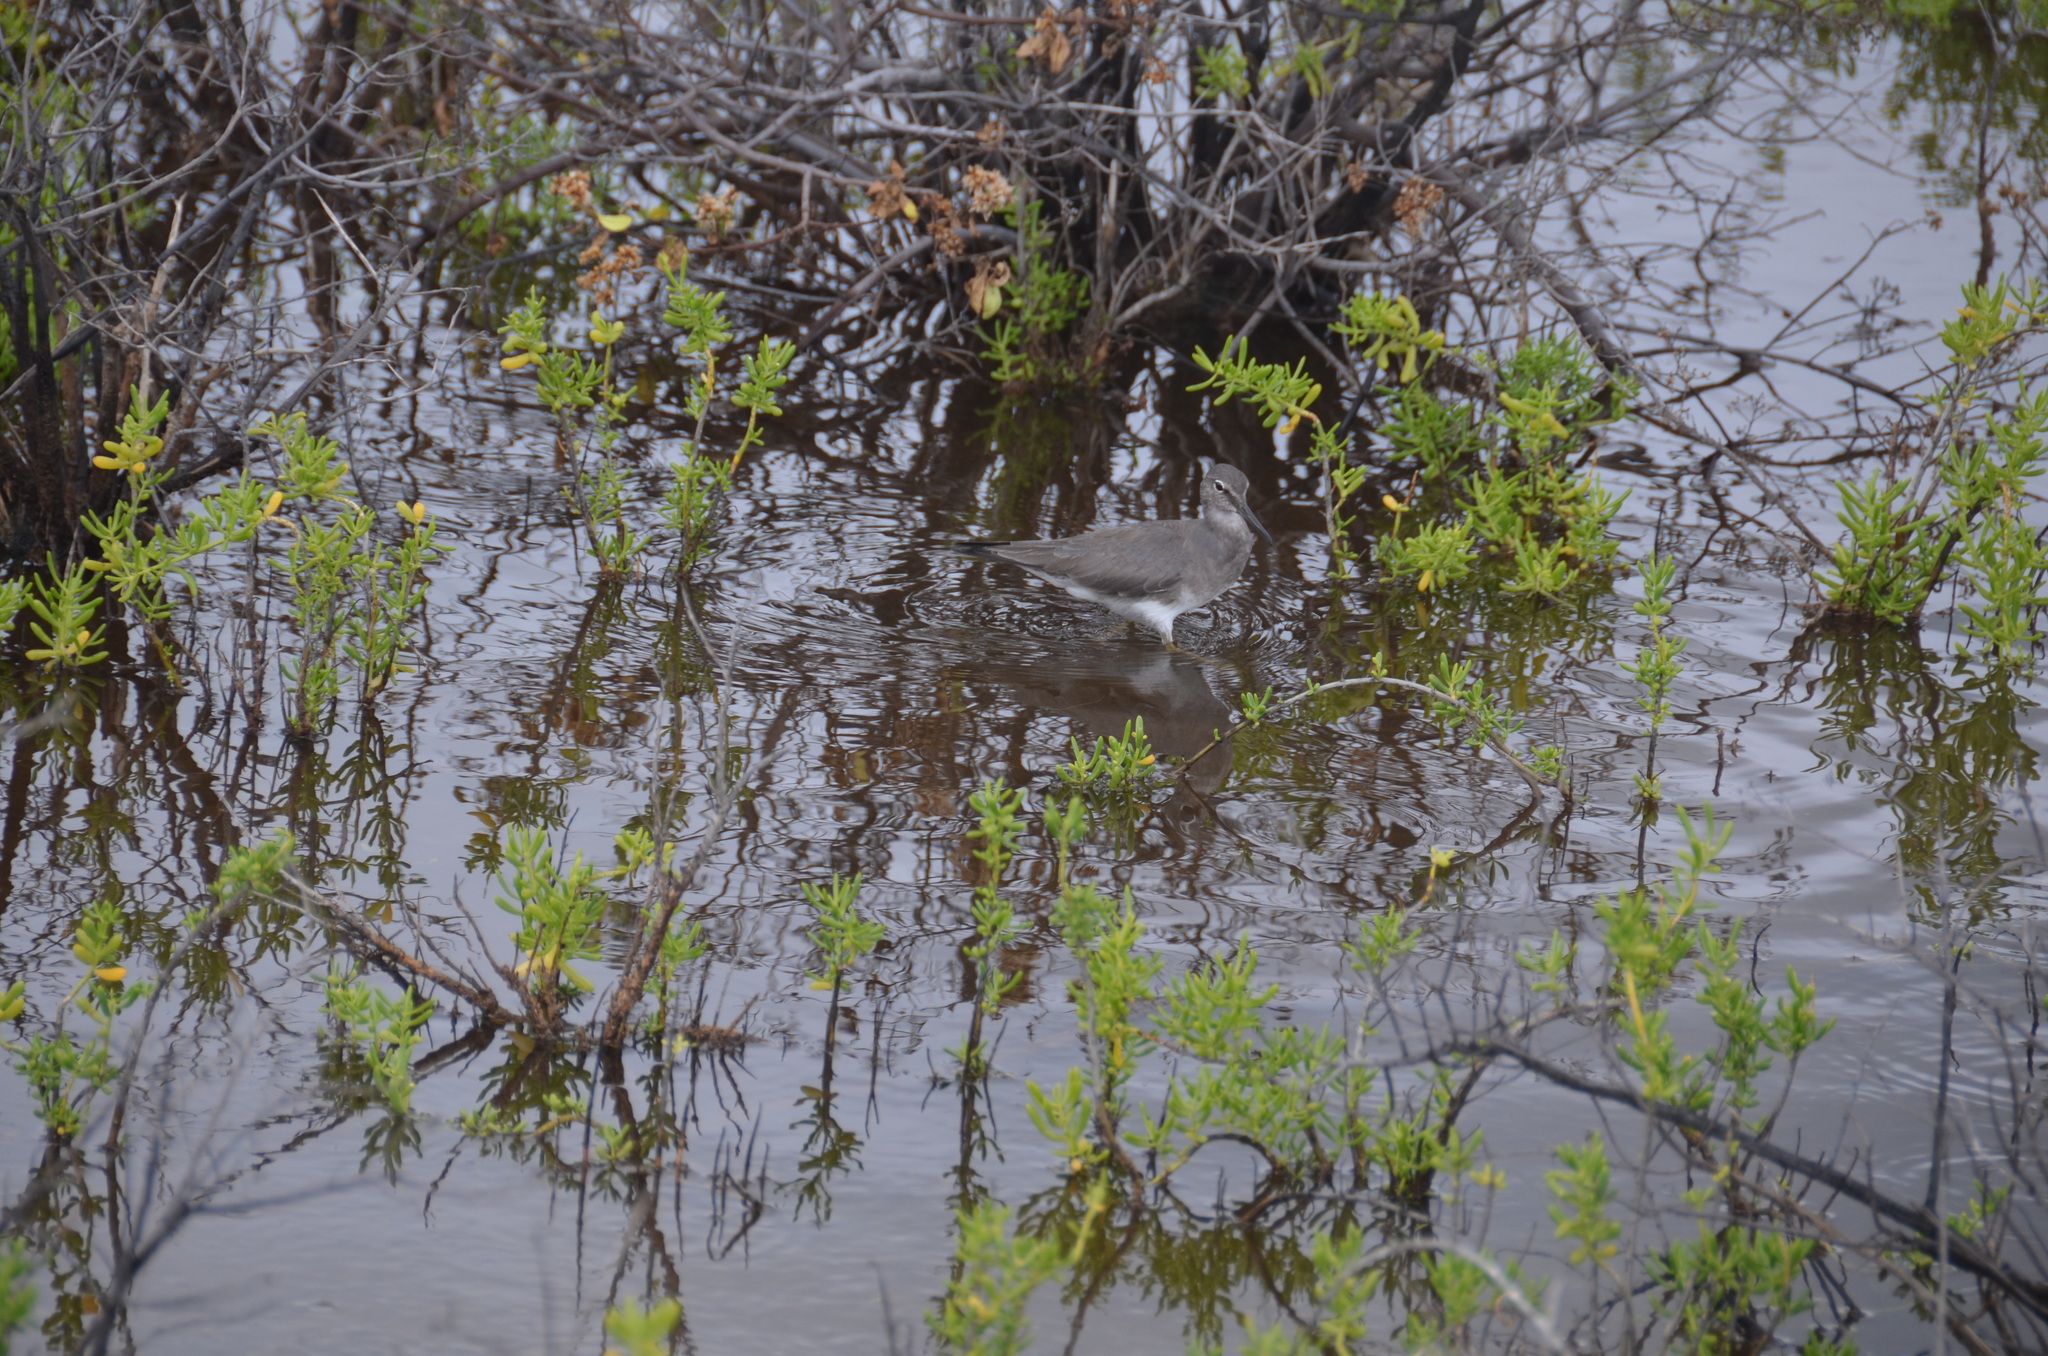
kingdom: Animalia
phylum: Chordata
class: Aves
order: Charadriiformes
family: Scolopacidae
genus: Tringa
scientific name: Tringa incana
